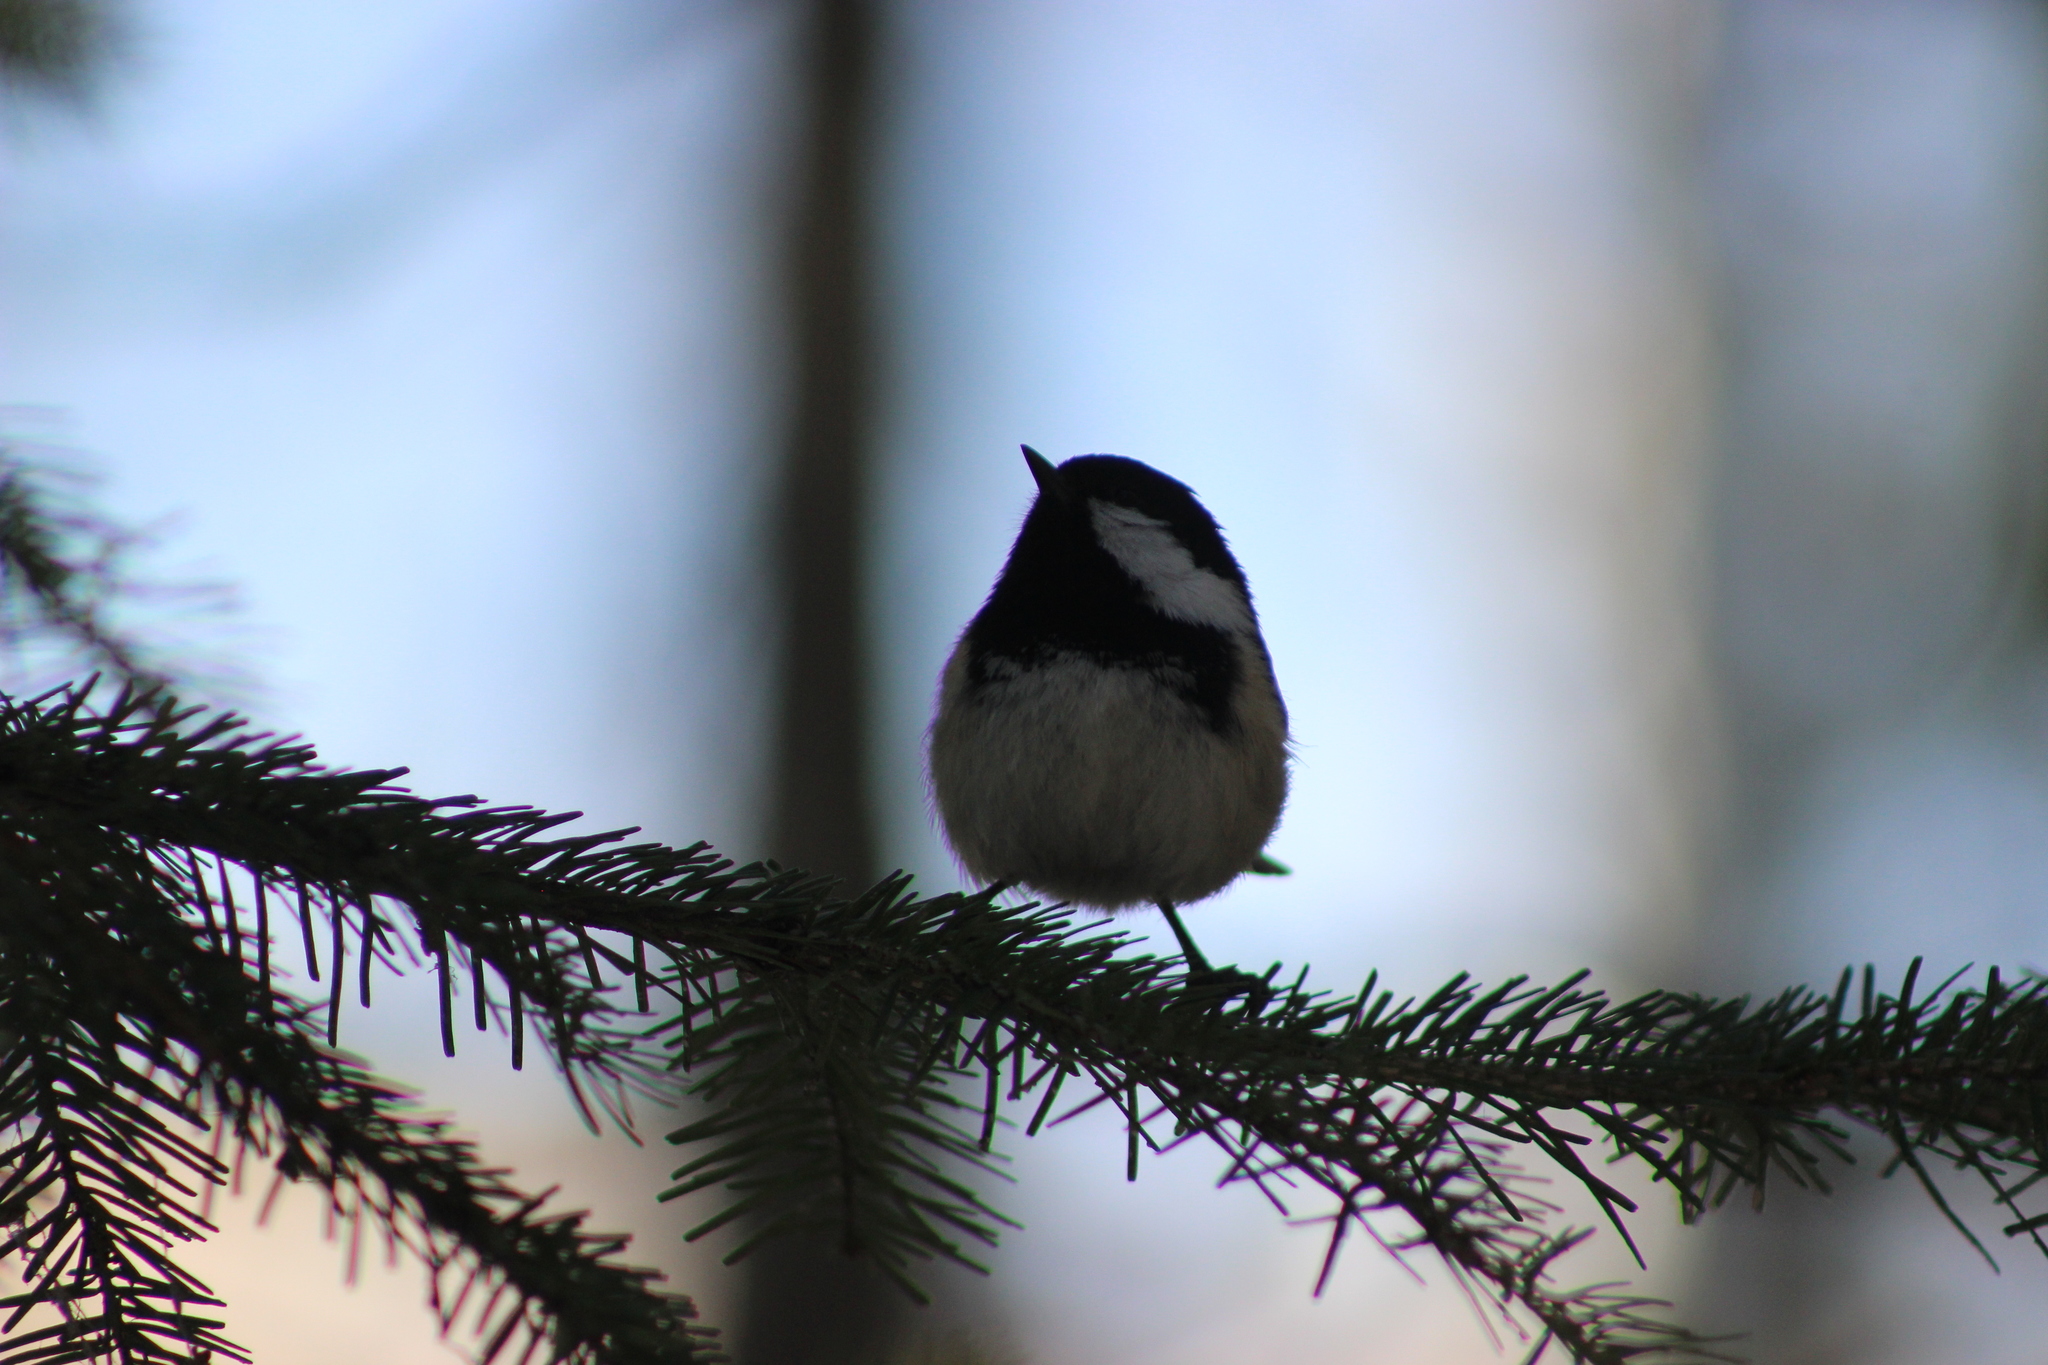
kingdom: Animalia
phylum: Chordata
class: Aves
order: Passeriformes
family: Paridae
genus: Periparus
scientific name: Periparus ater
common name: Coal tit
